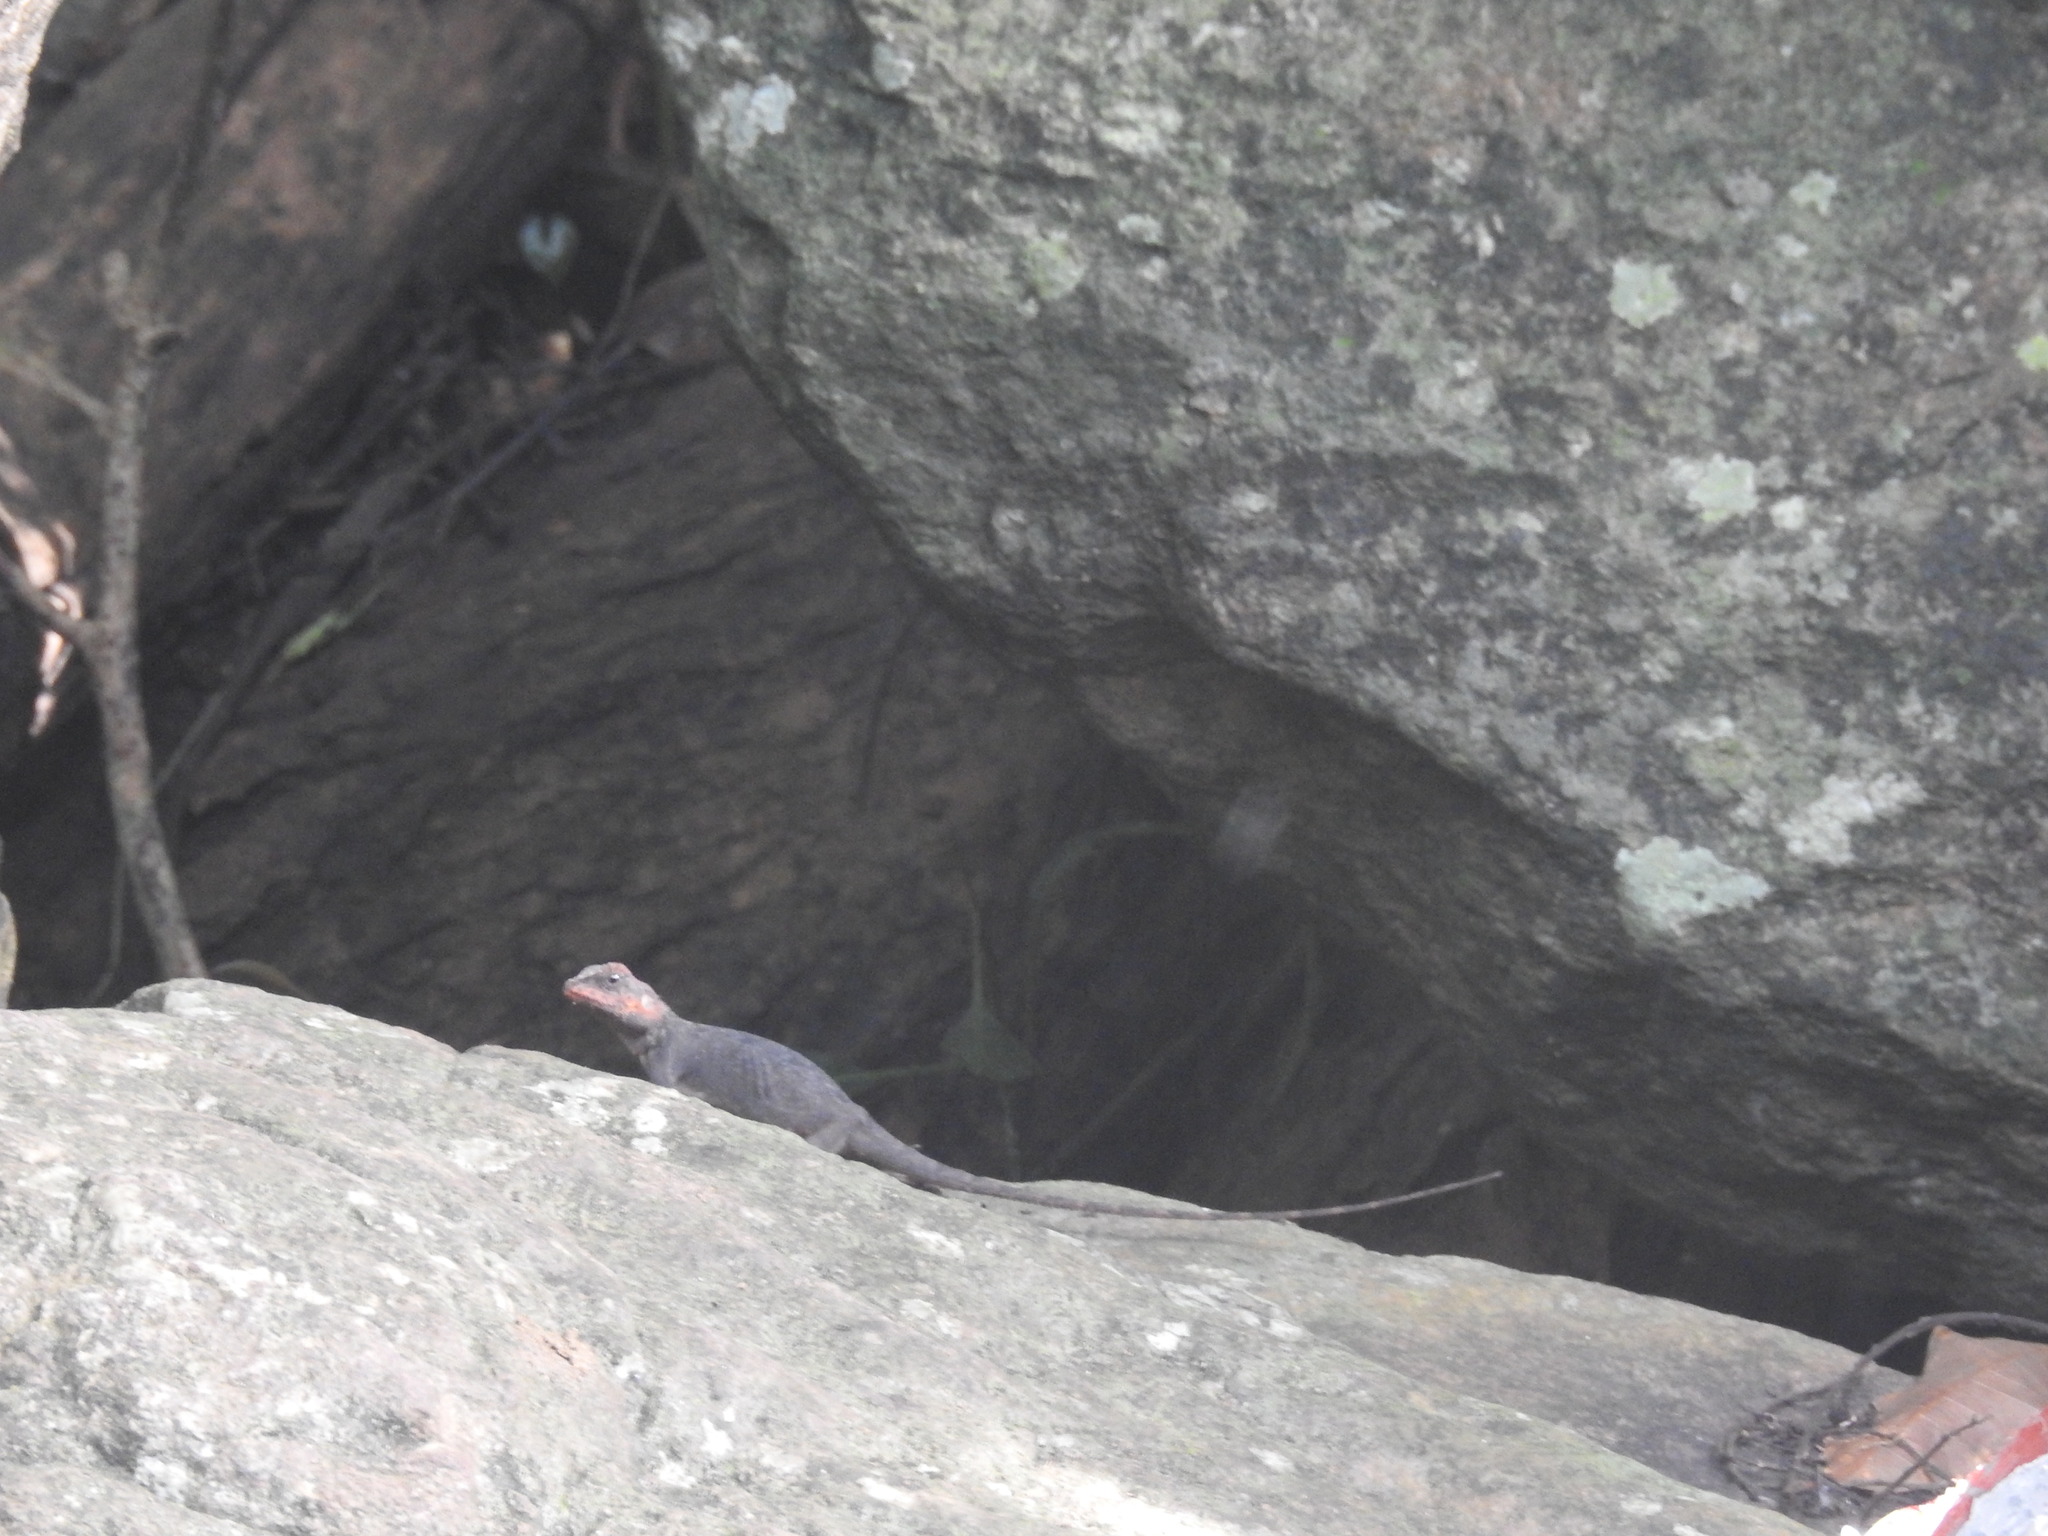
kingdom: Animalia
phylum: Chordata
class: Squamata
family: Agamidae
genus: Psammophilus
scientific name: Psammophilus dorsalis
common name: South indian rock agama
